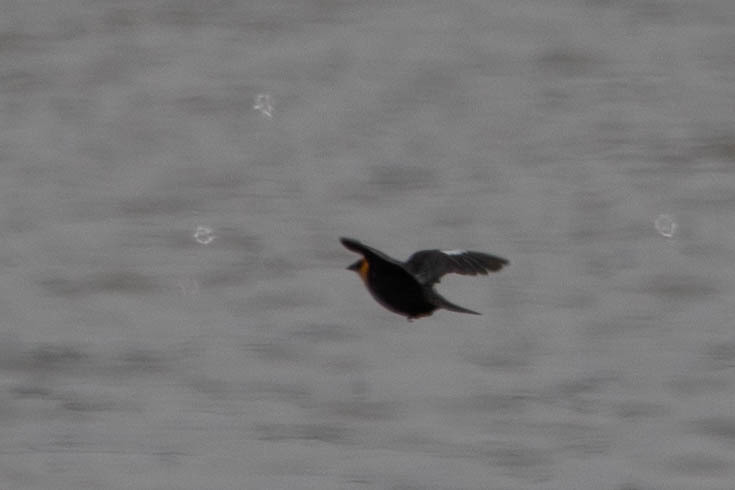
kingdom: Animalia
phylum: Chordata
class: Aves
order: Passeriformes
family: Icteridae
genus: Xanthocephalus
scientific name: Xanthocephalus xanthocephalus
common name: Yellow-headed blackbird
